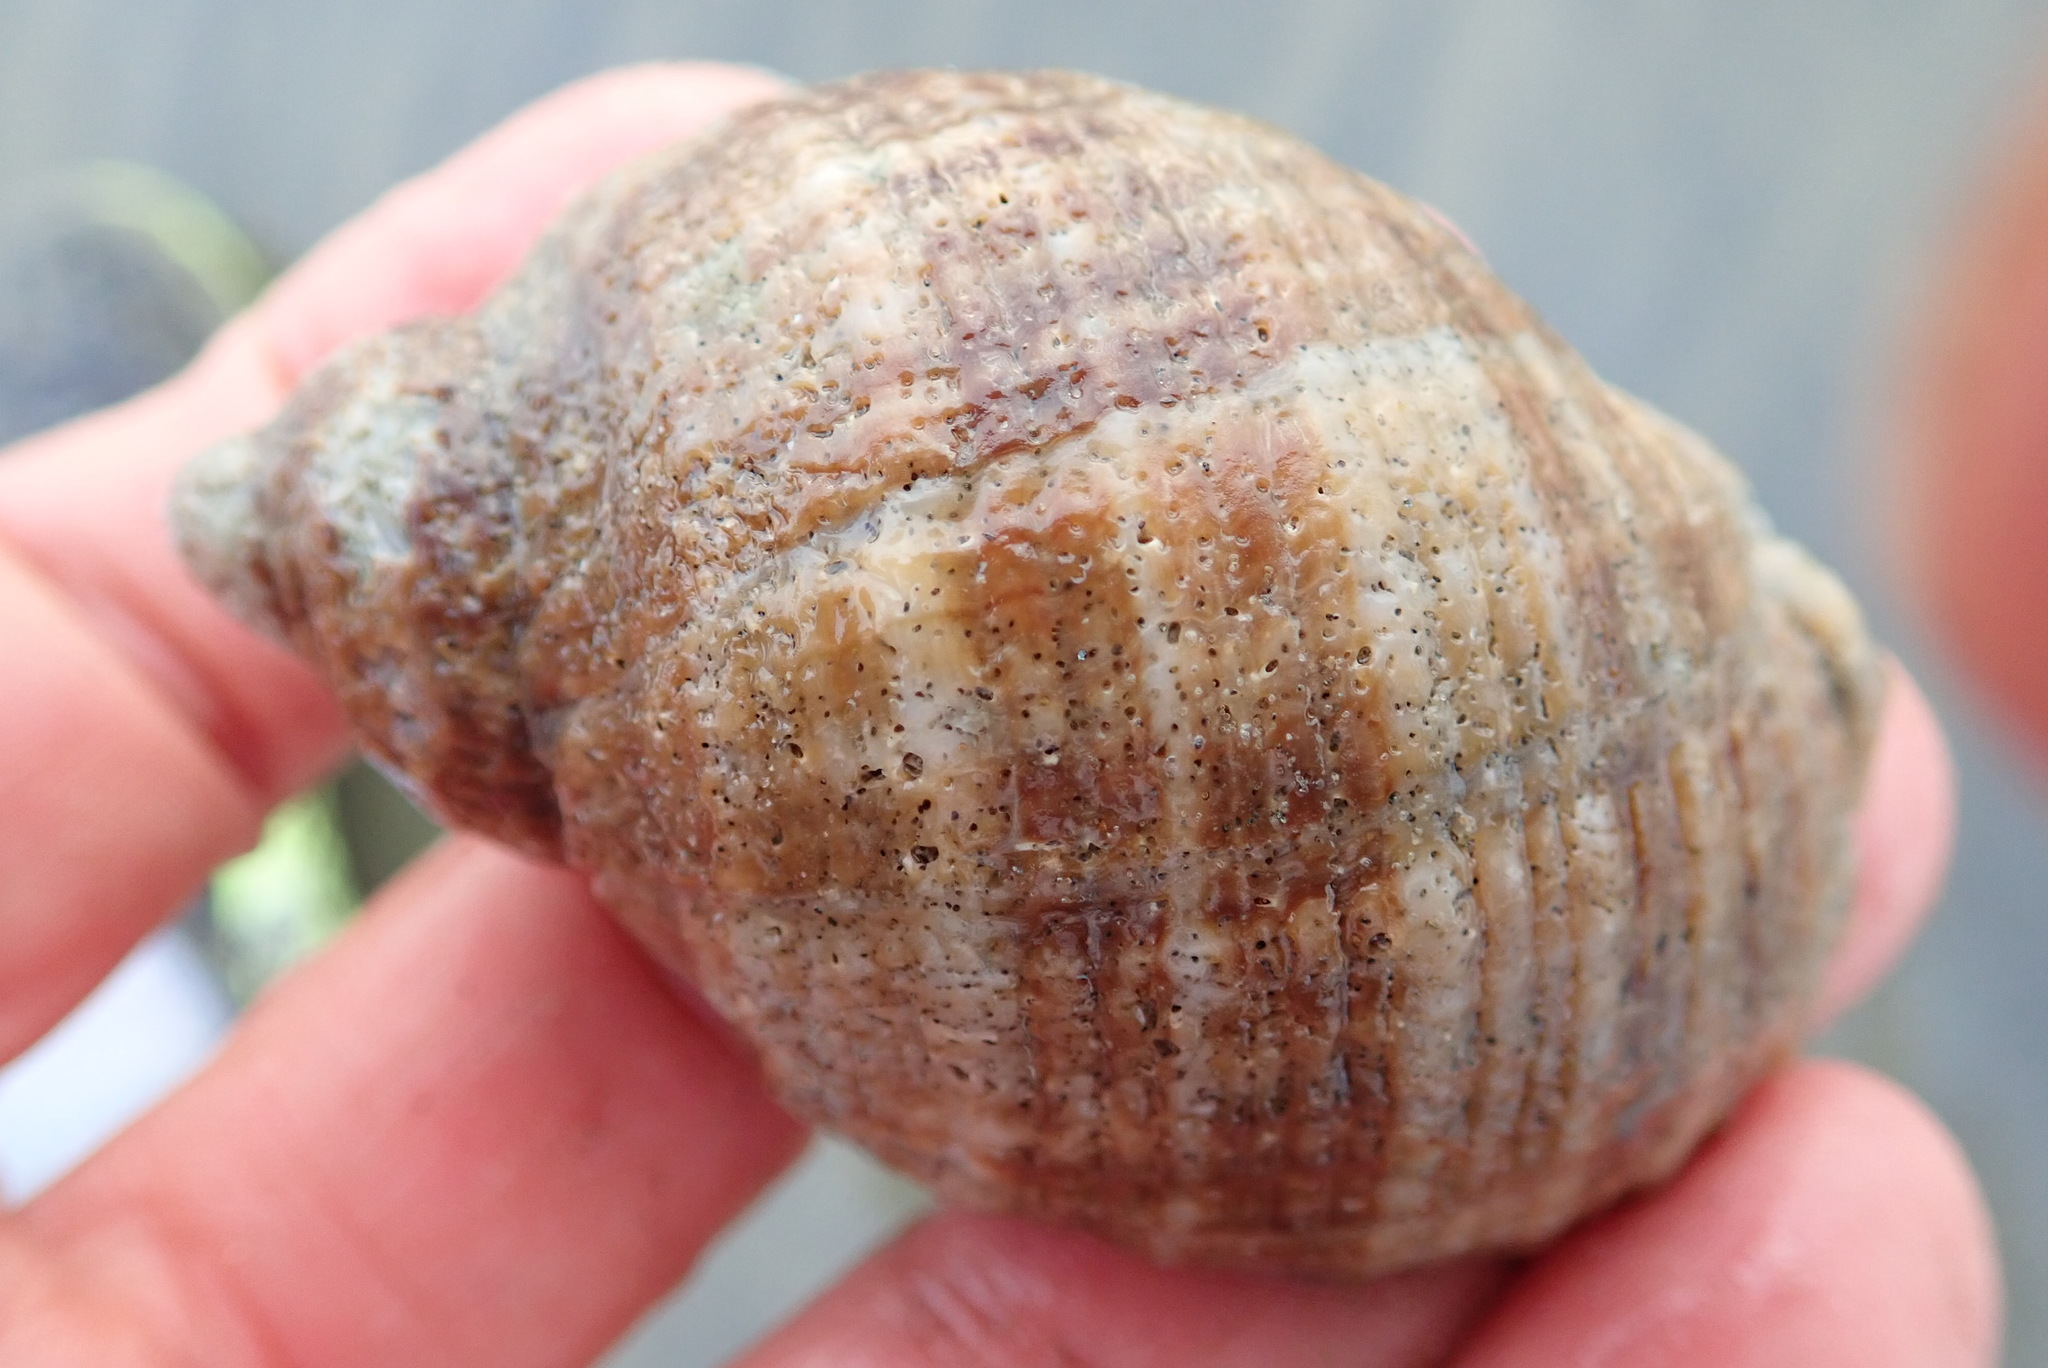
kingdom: Animalia
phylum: Mollusca
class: Gastropoda
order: Neogastropoda
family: Muricidae
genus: Dicathais
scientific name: Dicathais orbita
